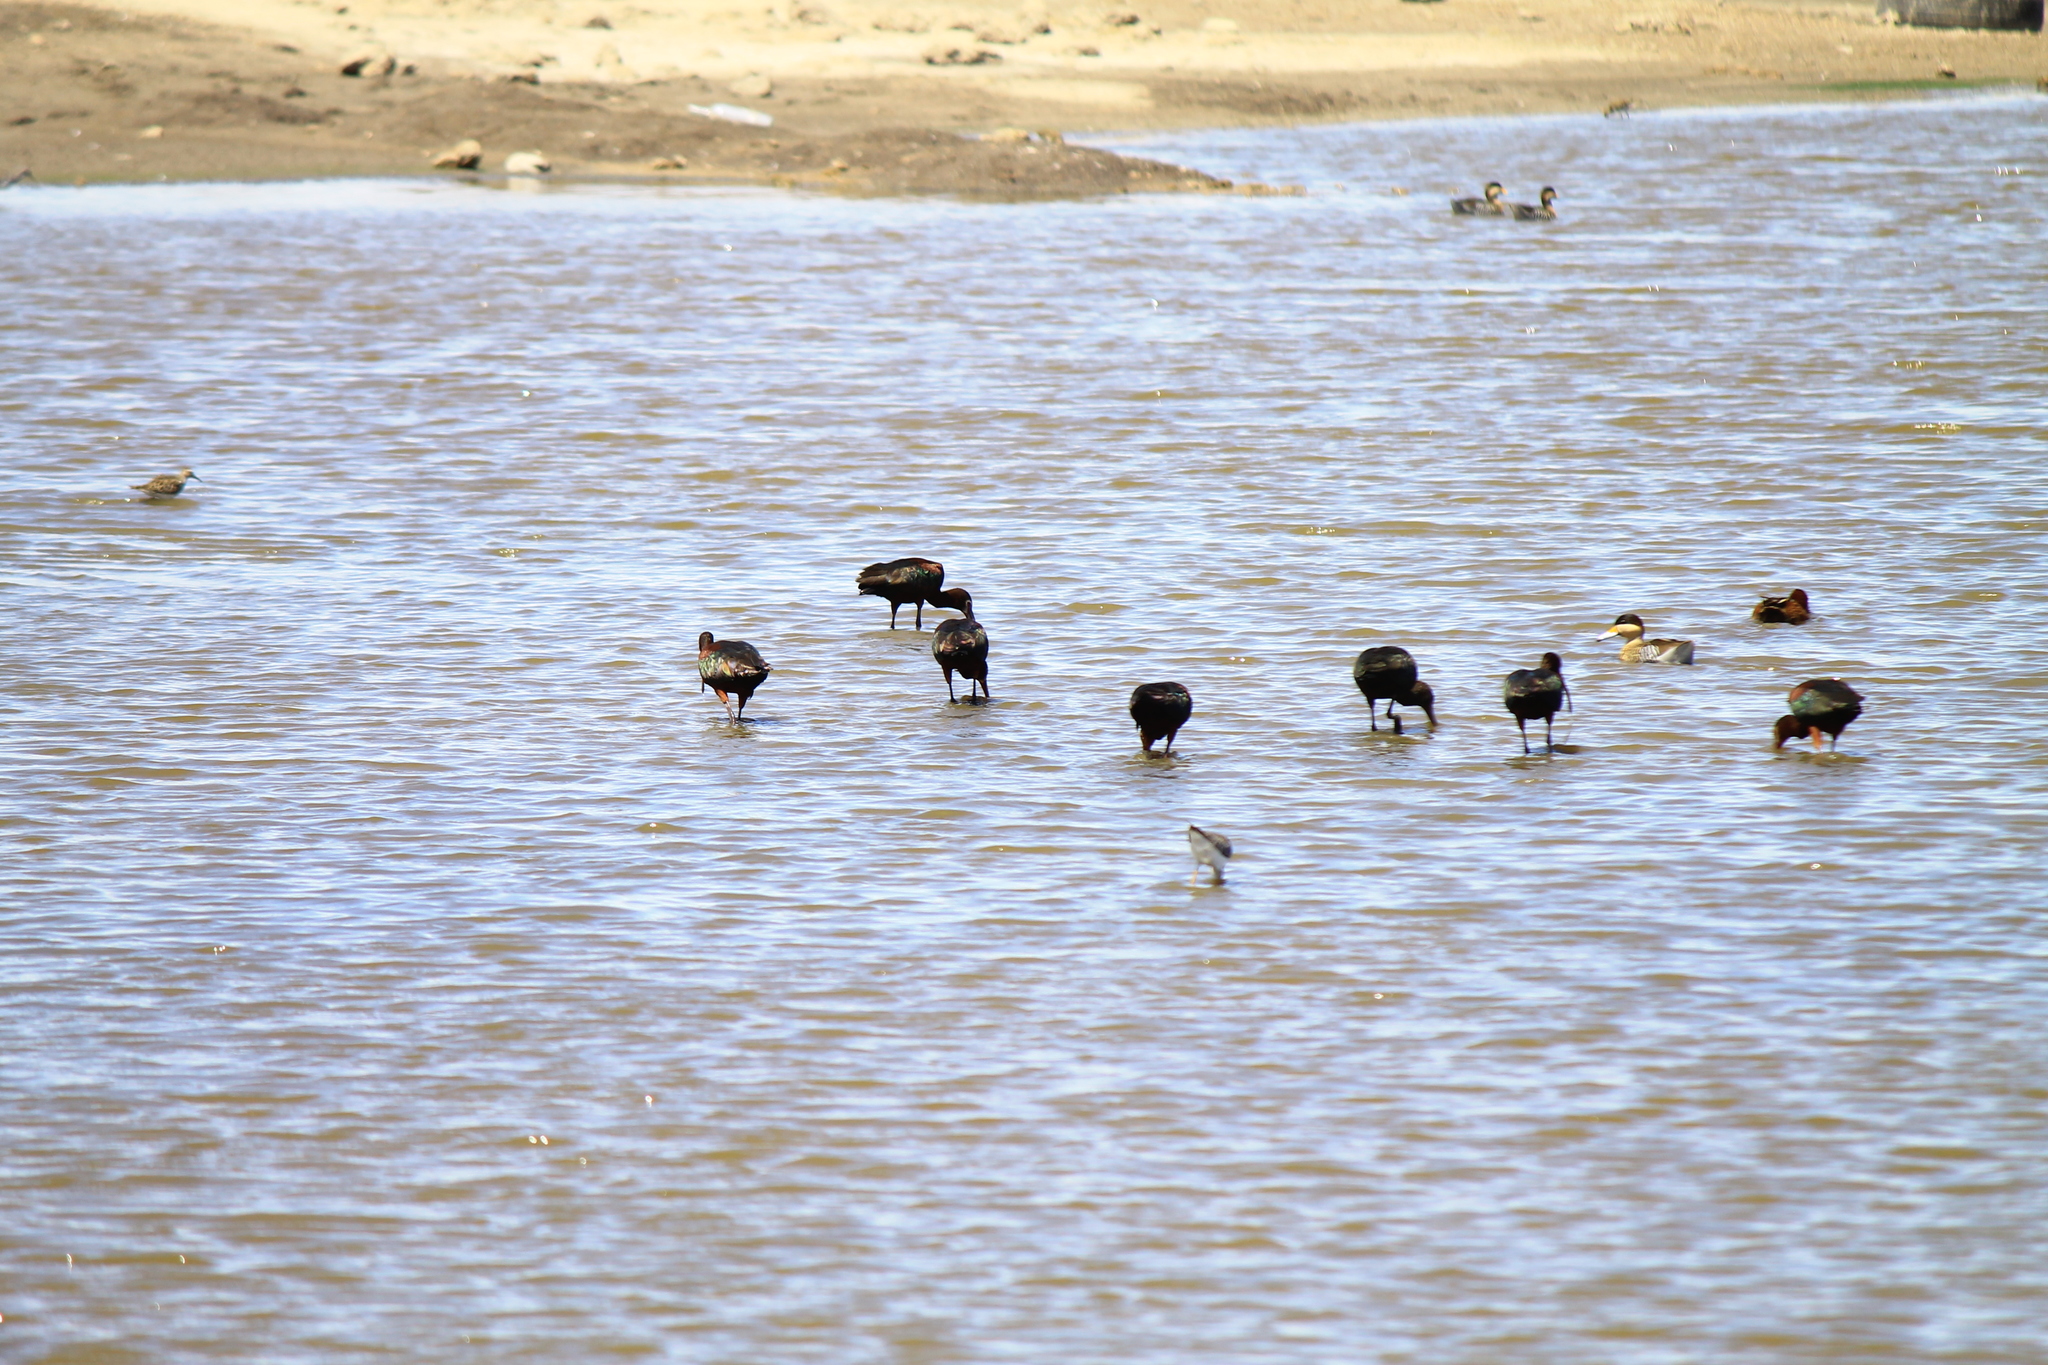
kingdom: Animalia
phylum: Chordata
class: Aves
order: Anseriformes
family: Anatidae
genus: Spatula
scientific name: Spatula versicolor
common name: Silver teal
